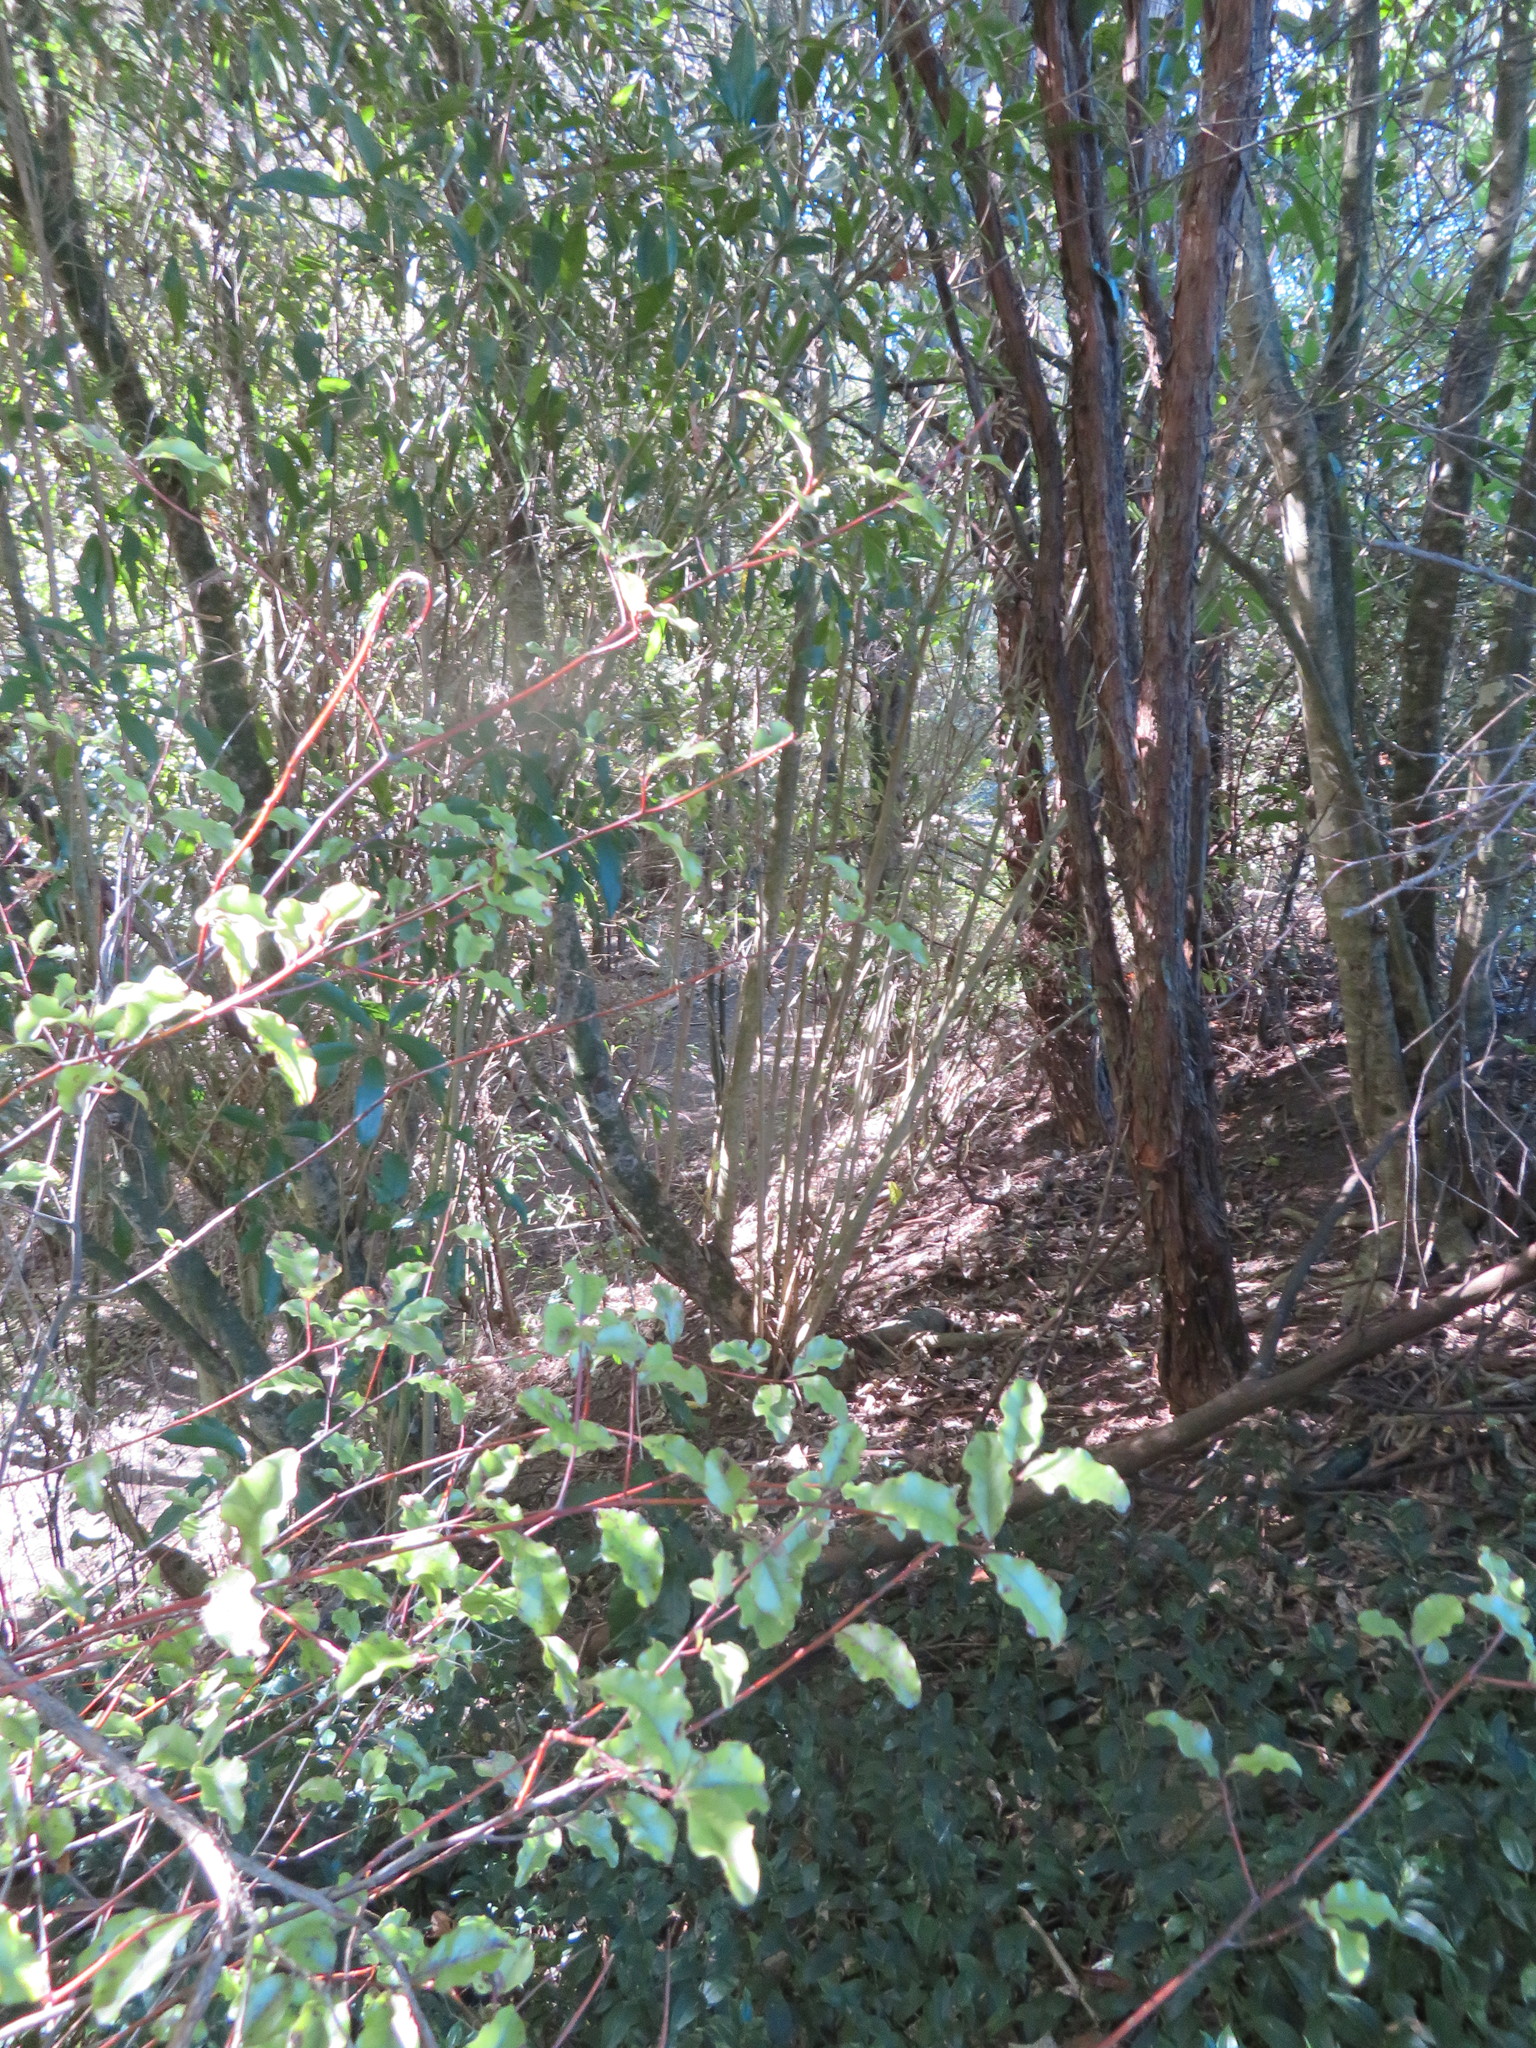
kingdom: Plantae
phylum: Tracheophyta
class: Magnoliopsida
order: Ericales
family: Primulaceae
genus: Myrsine
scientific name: Myrsine australis
